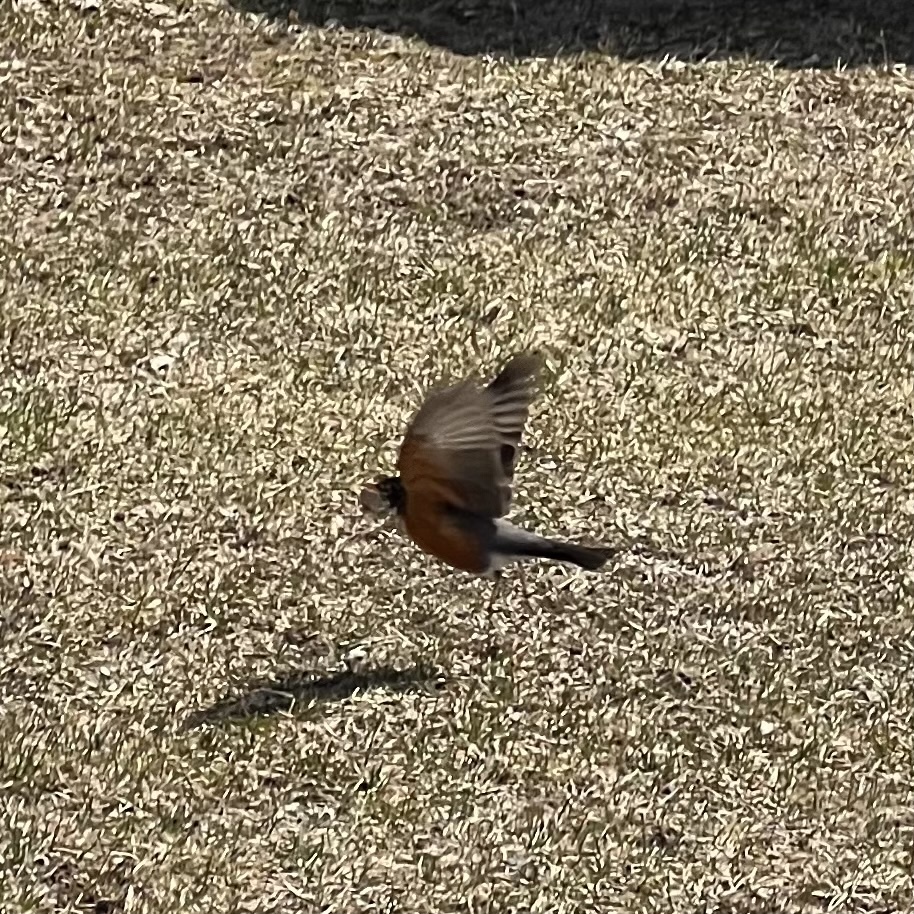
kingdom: Animalia
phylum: Chordata
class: Aves
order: Passeriformes
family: Turdidae
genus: Turdus
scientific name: Turdus migratorius
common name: American robin
